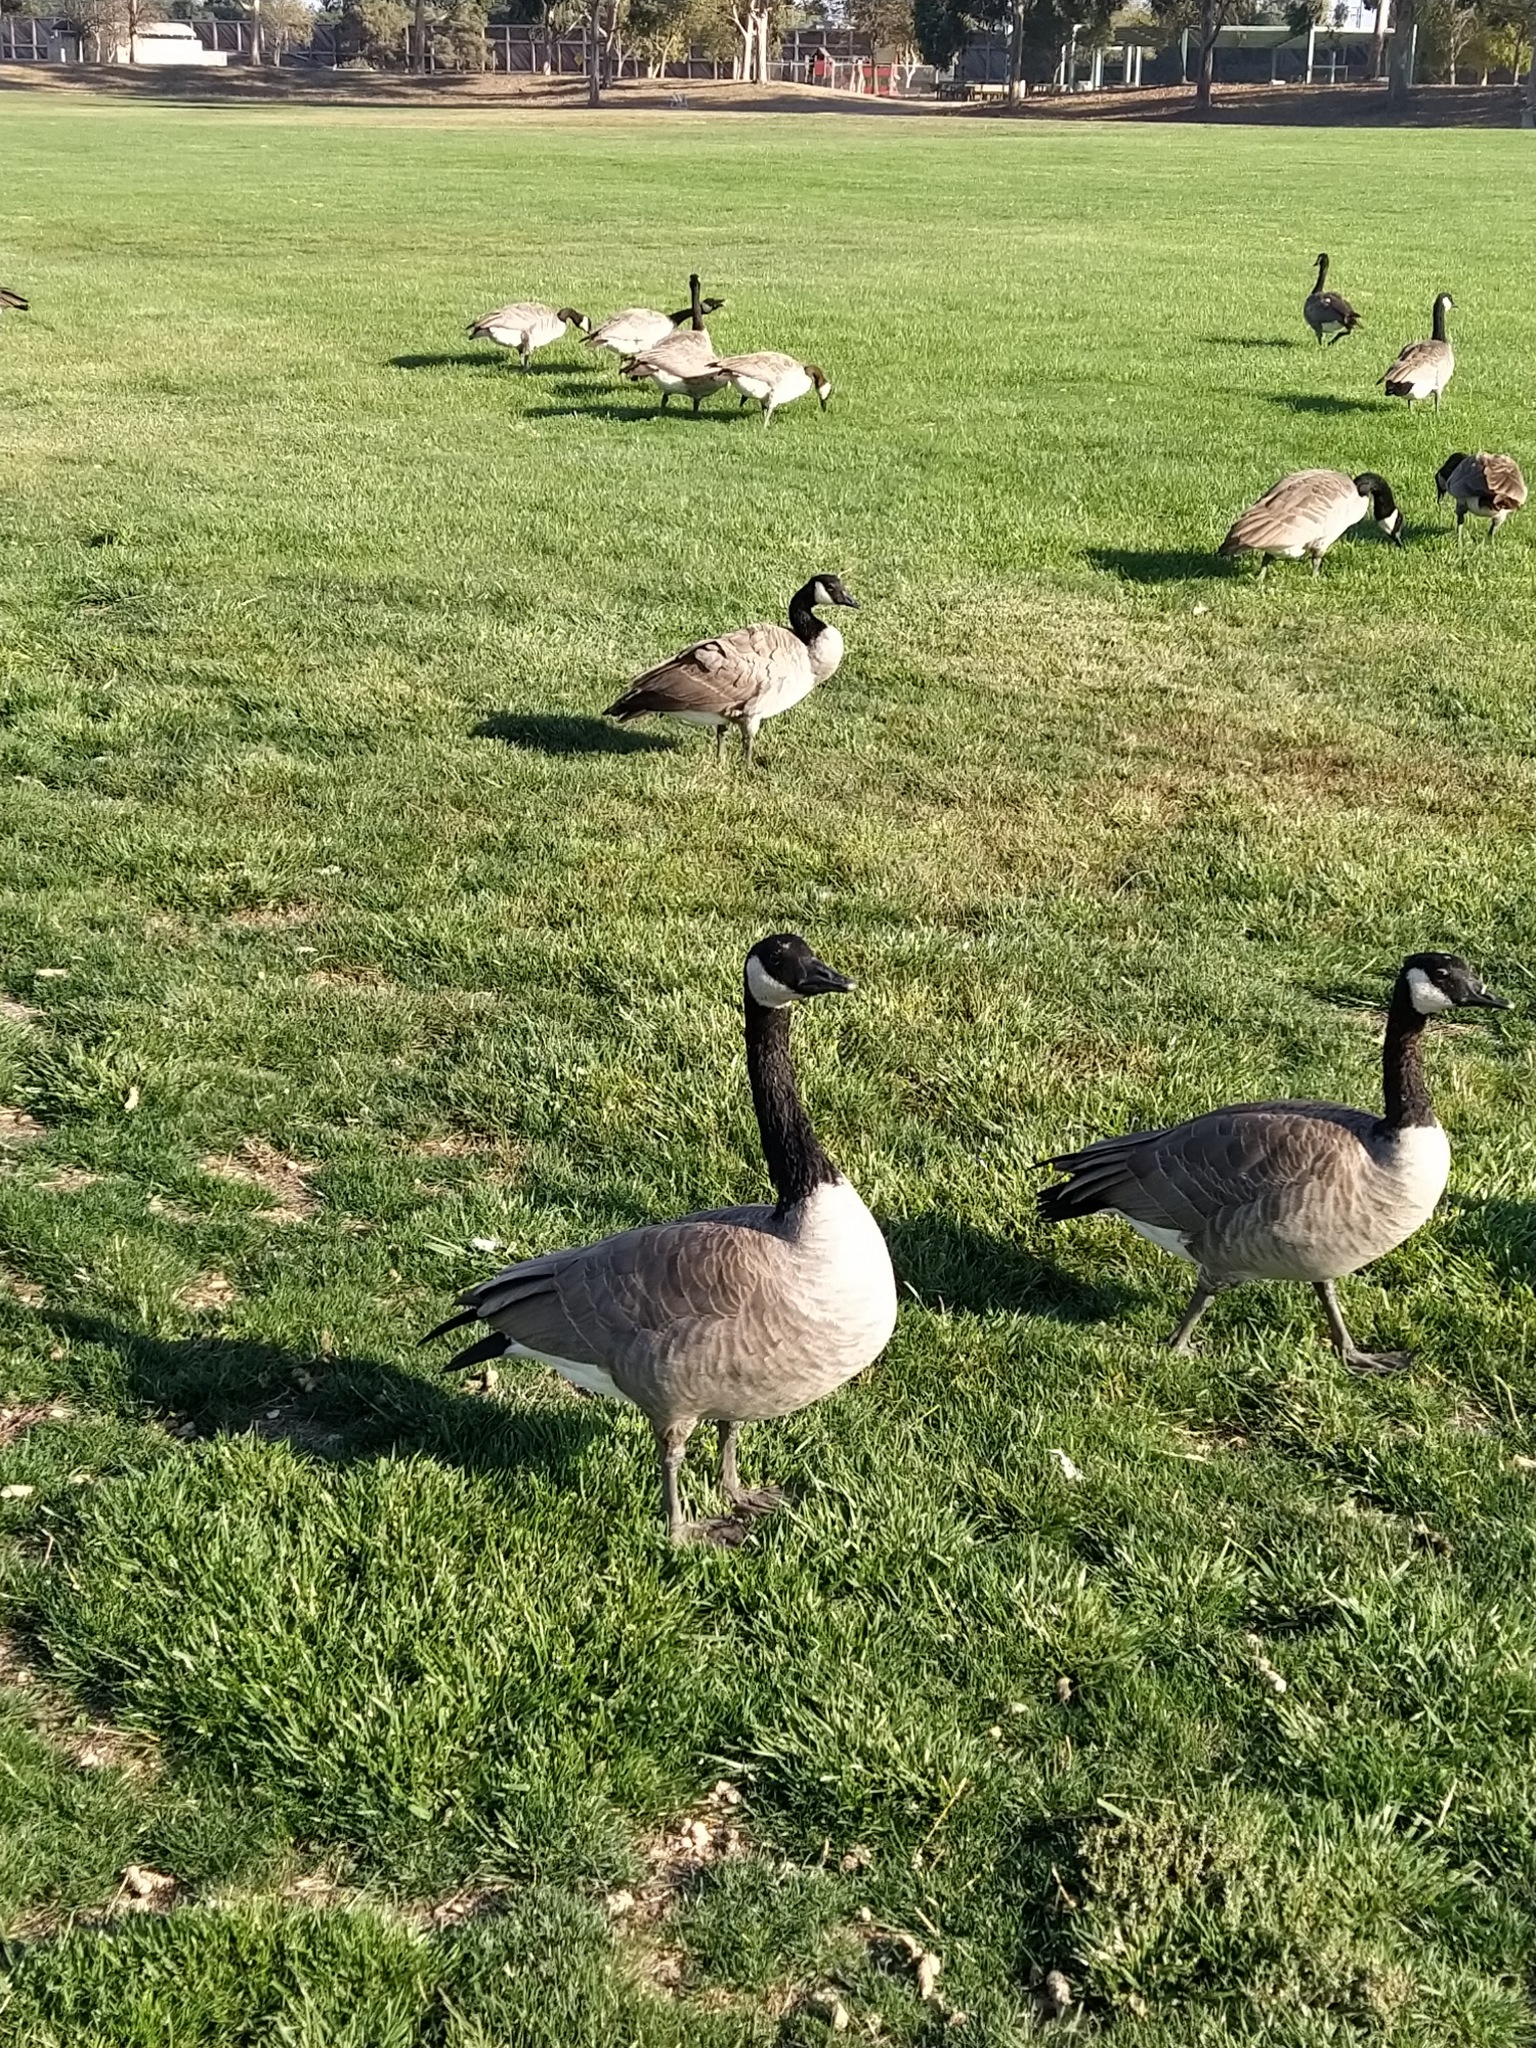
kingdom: Animalia
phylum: Chordata
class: Aves
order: Anseriformes
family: Anatidae
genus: Branta
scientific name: Branta canadensis
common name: Canada goose
